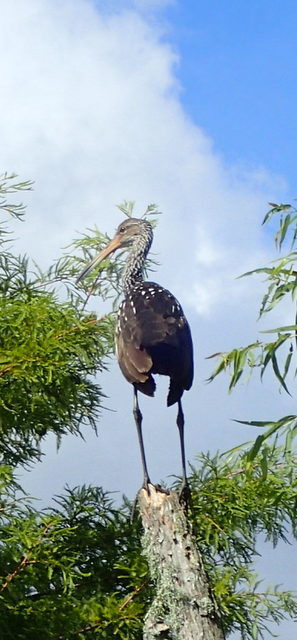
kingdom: Animalia
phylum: Chordata
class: Aves
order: Gruiformes
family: Aramidae
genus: Aramus
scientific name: Aramus guarauna
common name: Limpkin
